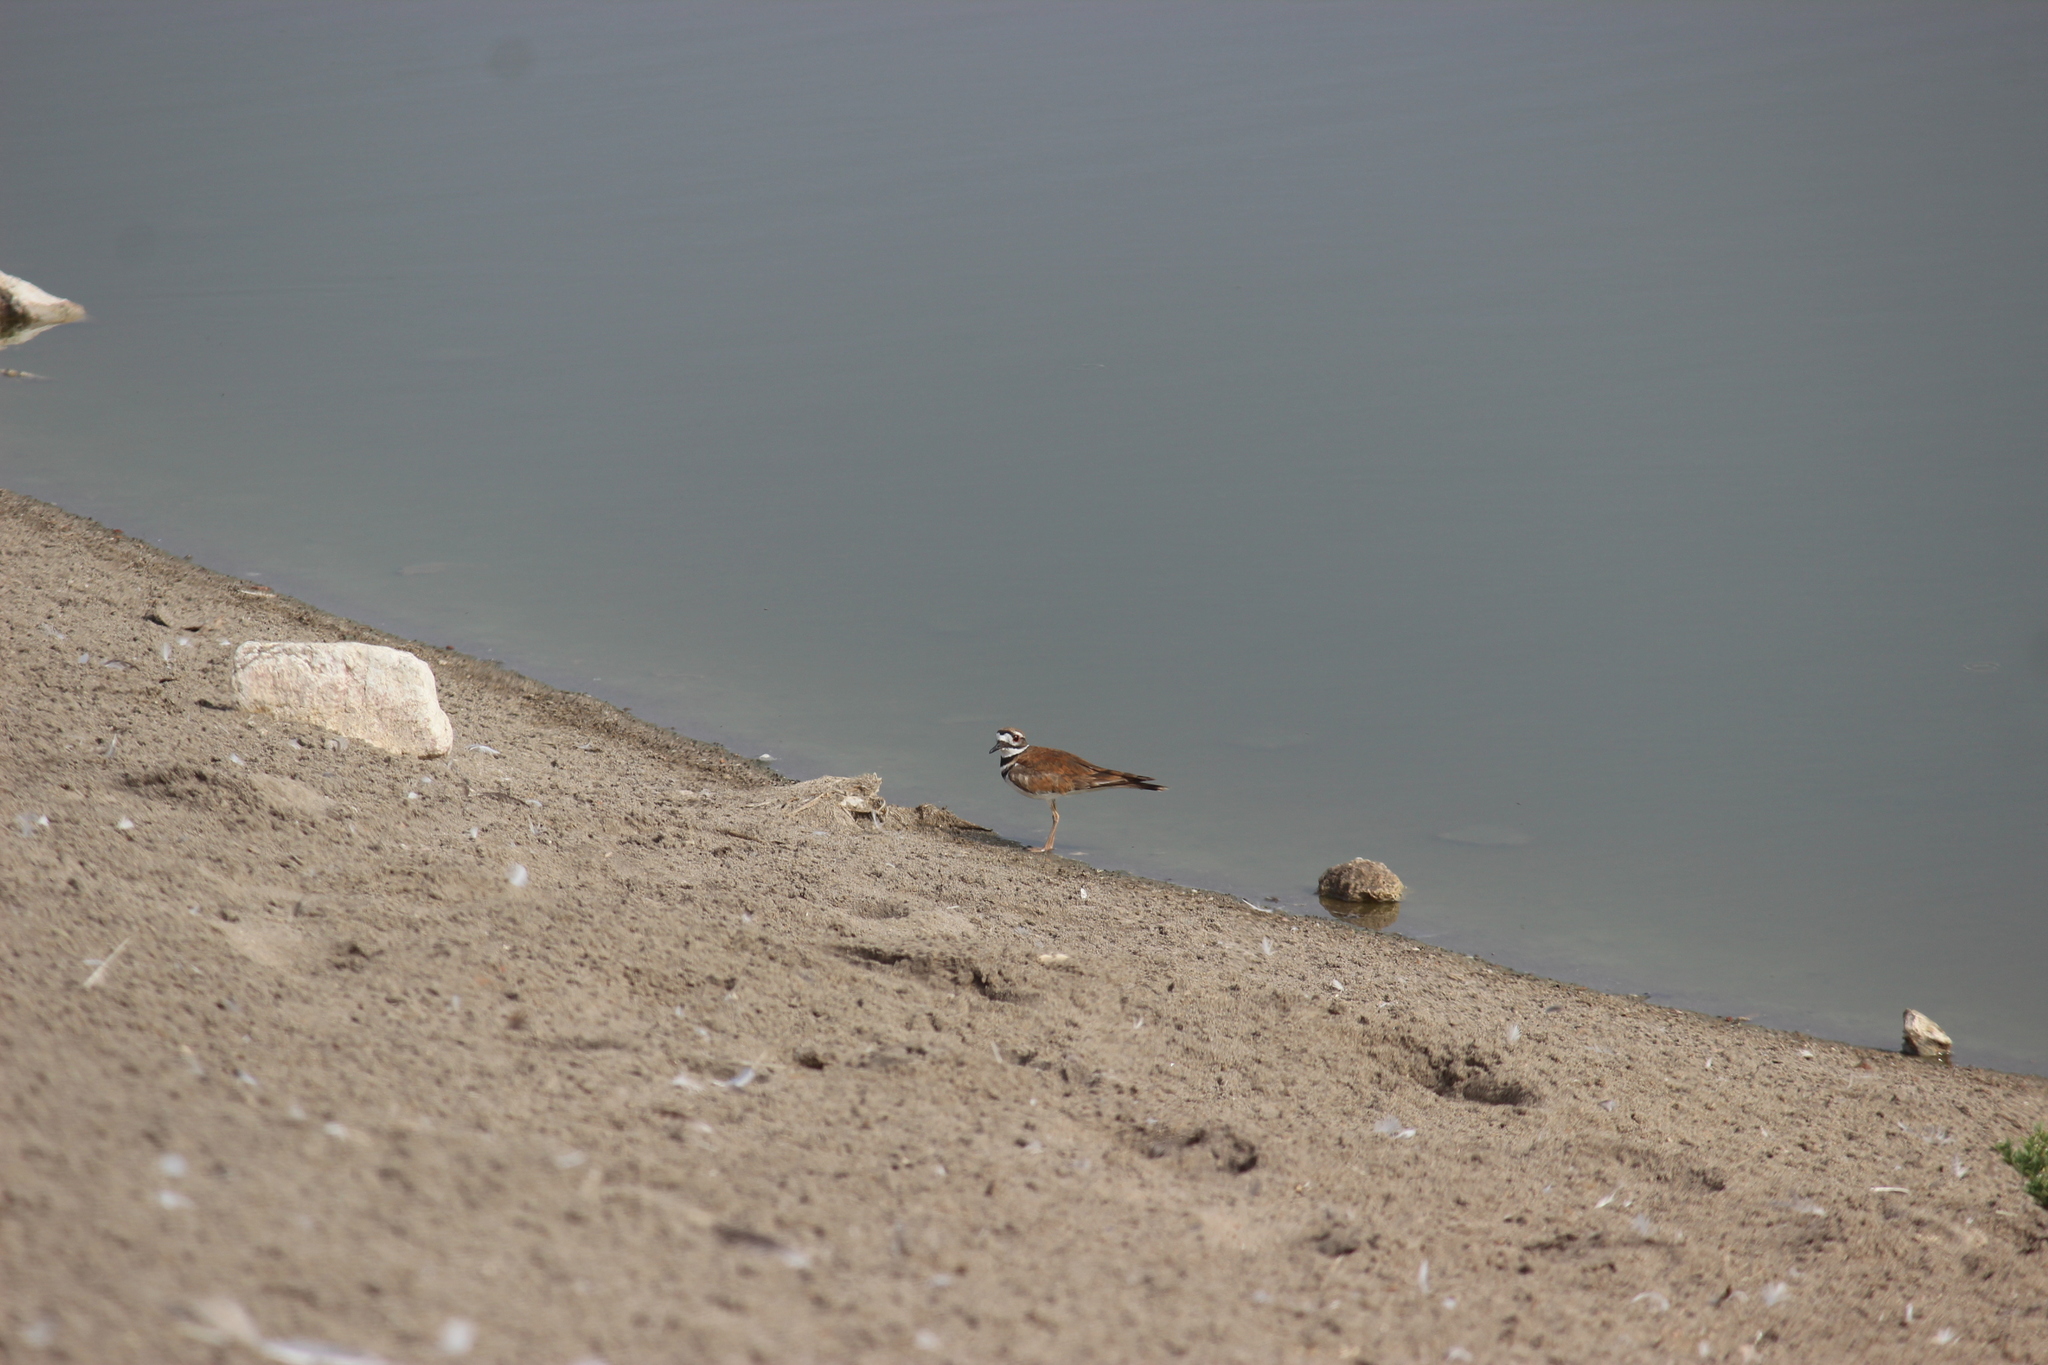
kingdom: Animalia
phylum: Chordata
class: Aves
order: Charadriiformes
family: Charadriidae
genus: Charadrius
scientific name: Charadrius vociferus
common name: Killdeer
